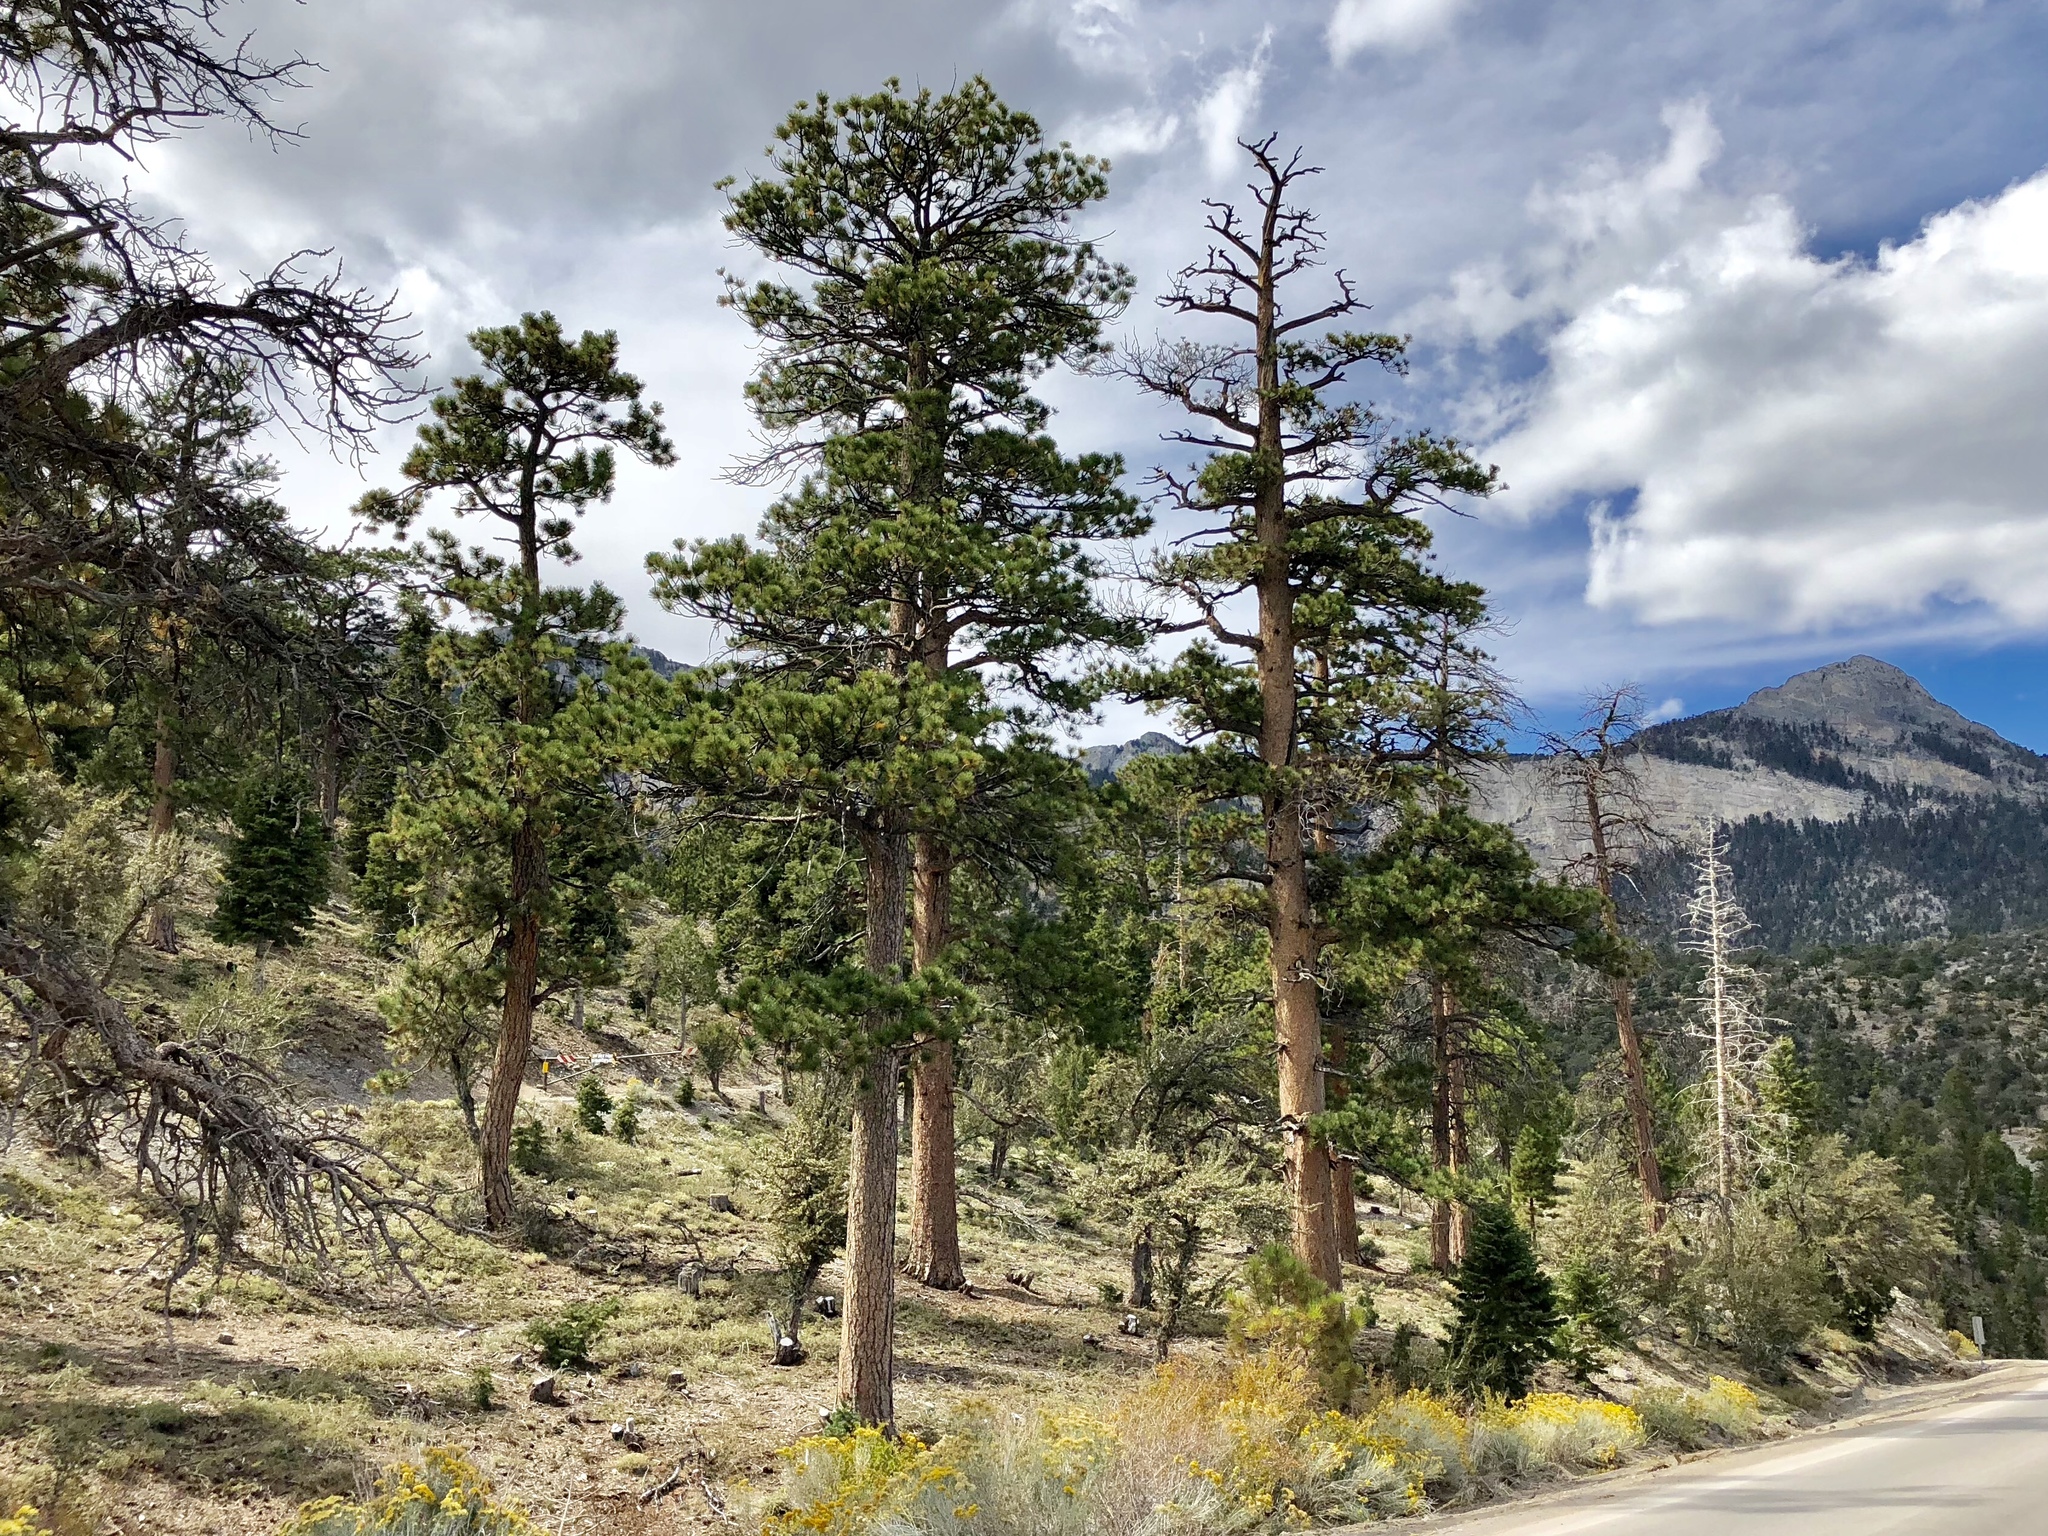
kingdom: Plantae
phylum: Tracheophyta
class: Pinopsida
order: Pinales
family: Pinaceae
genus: Pinus
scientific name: Pinus ponderosa
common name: Western yellow-pine
